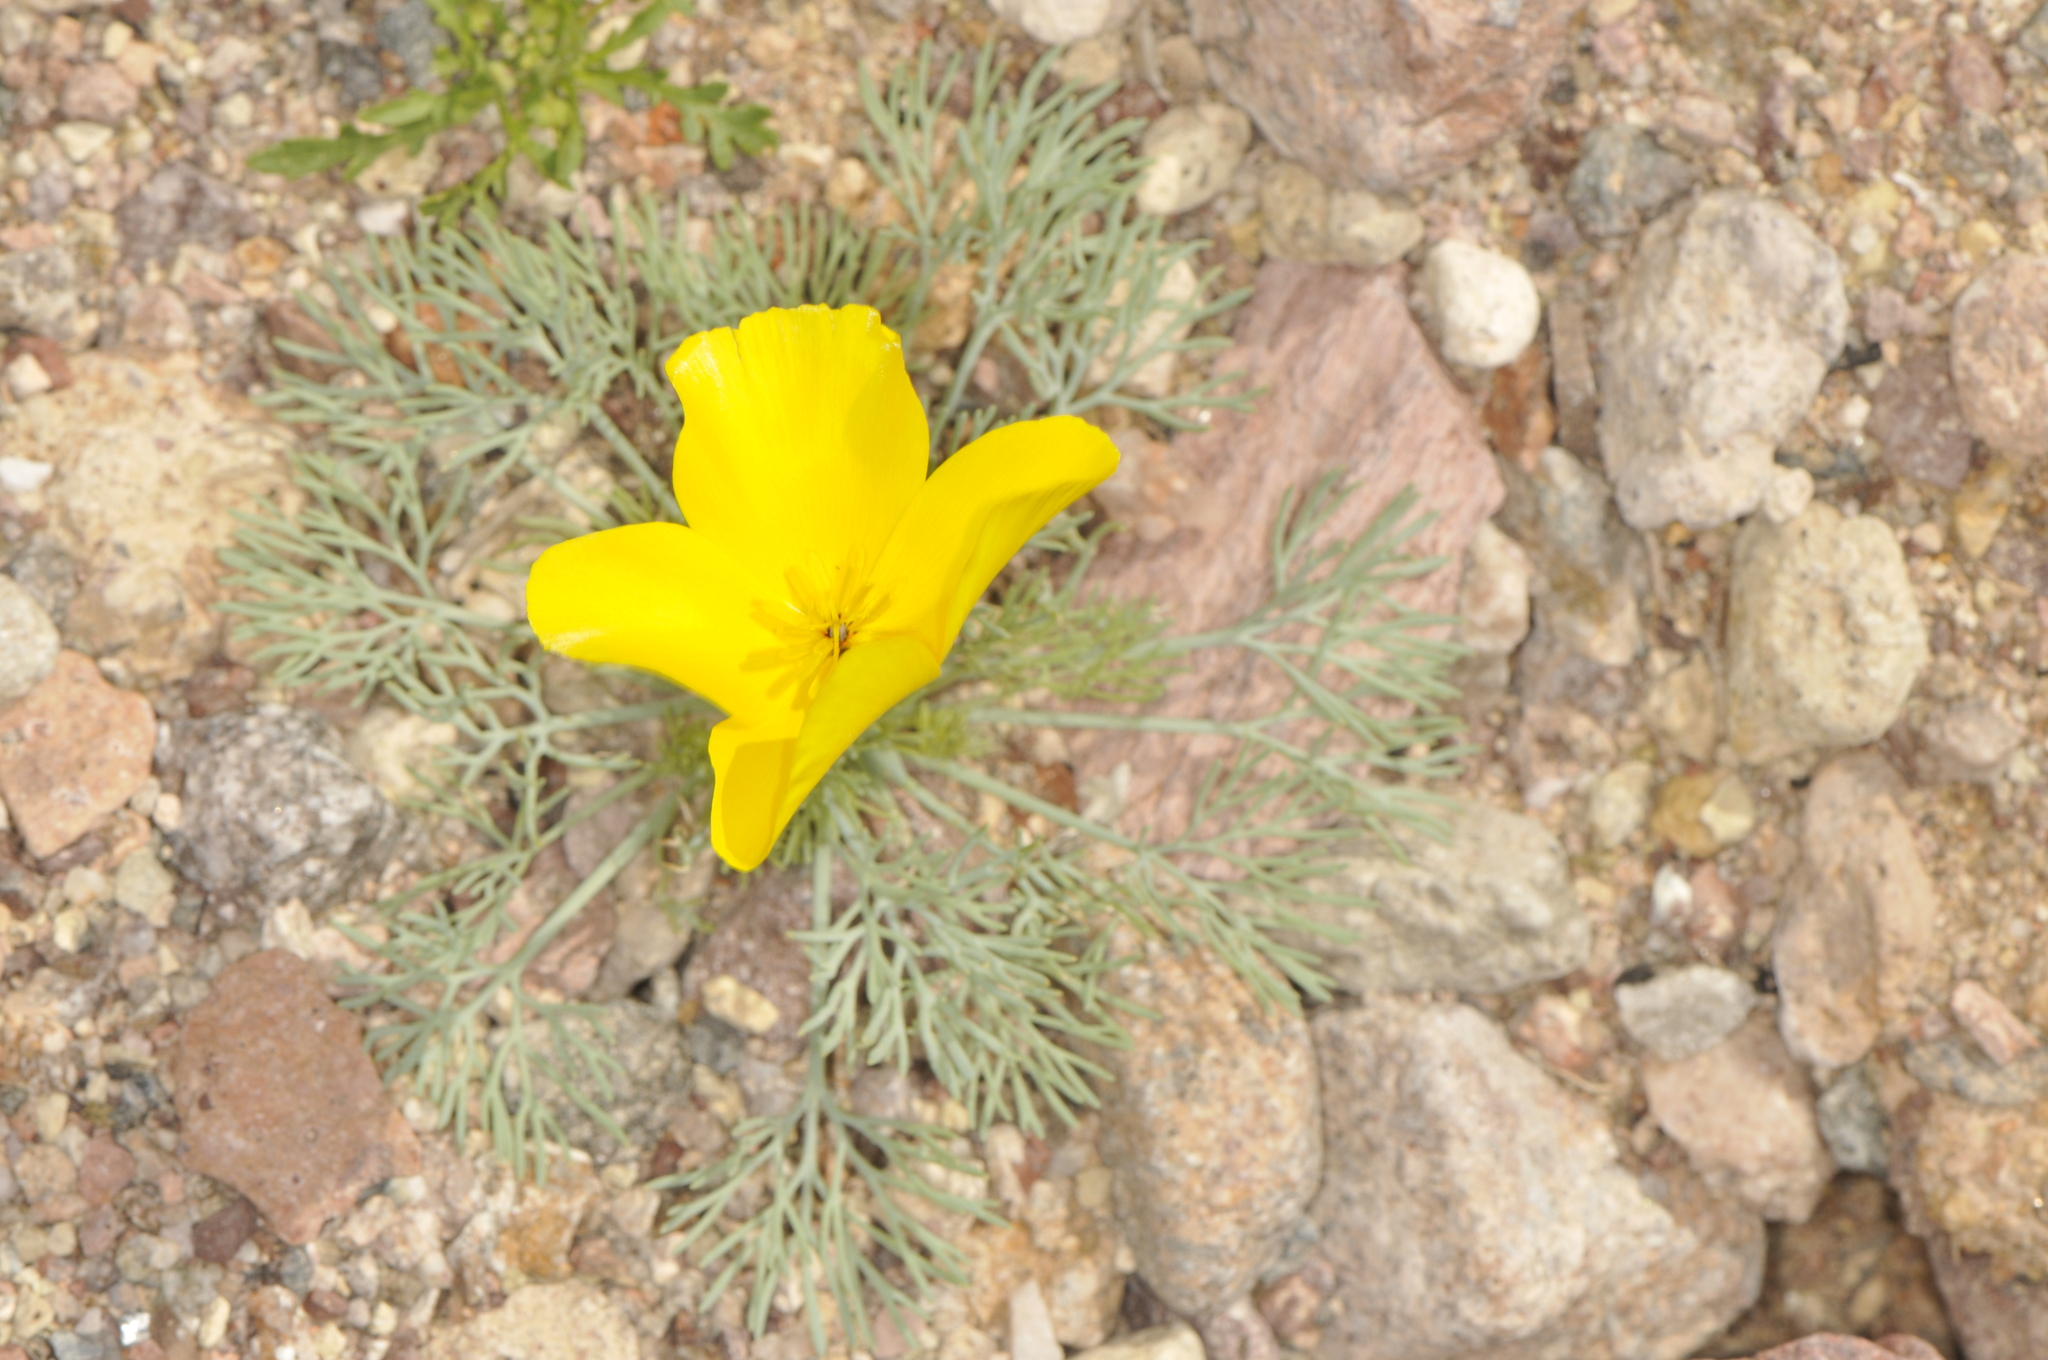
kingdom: Plantae
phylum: Tracheophyta
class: Magnoliopsida
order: Ranunculales
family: Papaveraceae
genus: Eschscholzia
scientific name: Eschscholzia glyptosperma
